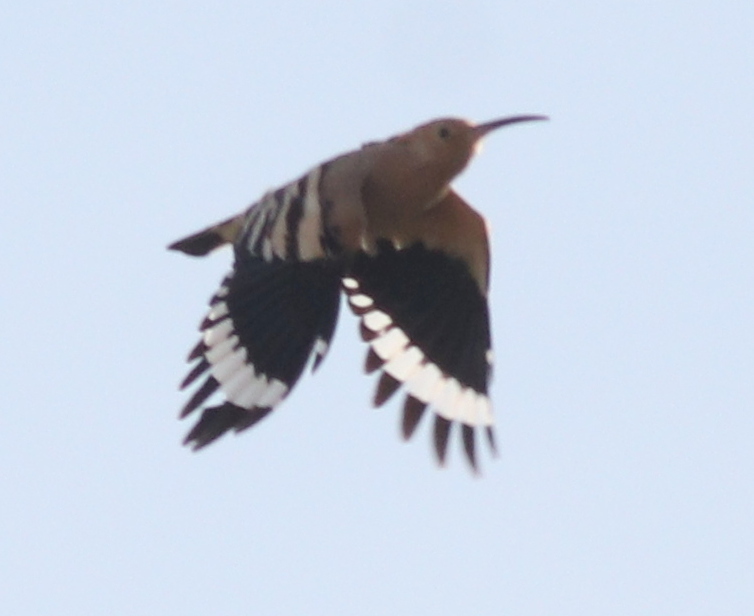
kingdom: Animalia
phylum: Chordata
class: Aves
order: Bucerotiformes
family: Upupidae
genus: Upupa
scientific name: Upupa epops
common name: Eurasian hoopoe
